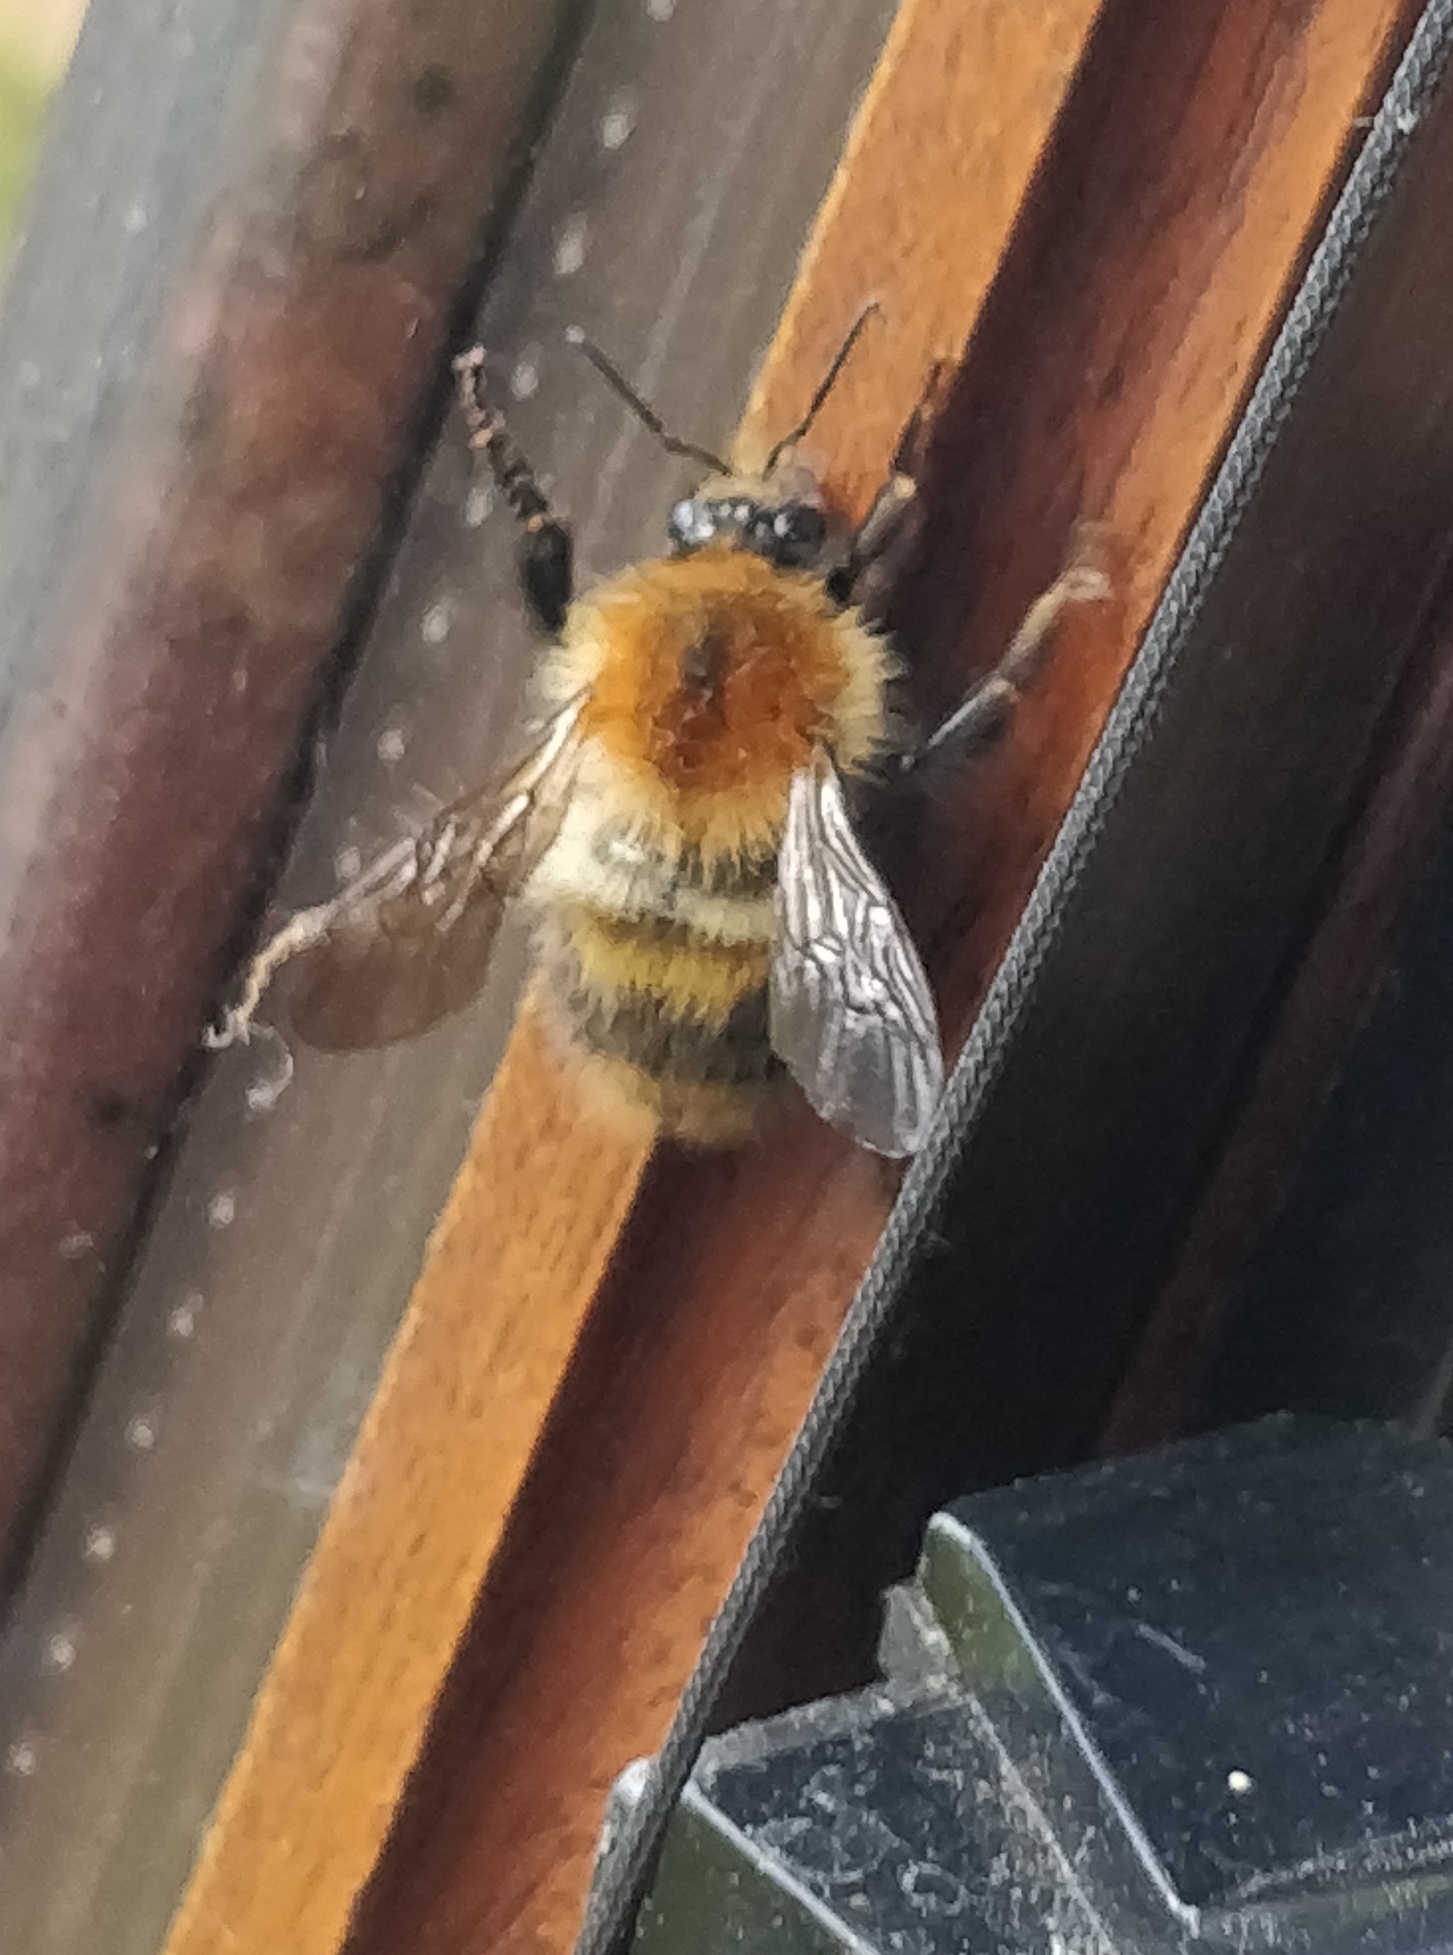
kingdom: Animalia
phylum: Arthropoda
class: Insecta
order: Hymenoptera
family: Apidae
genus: Bombus
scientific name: Bombus pascuorum
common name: Common carder bee
